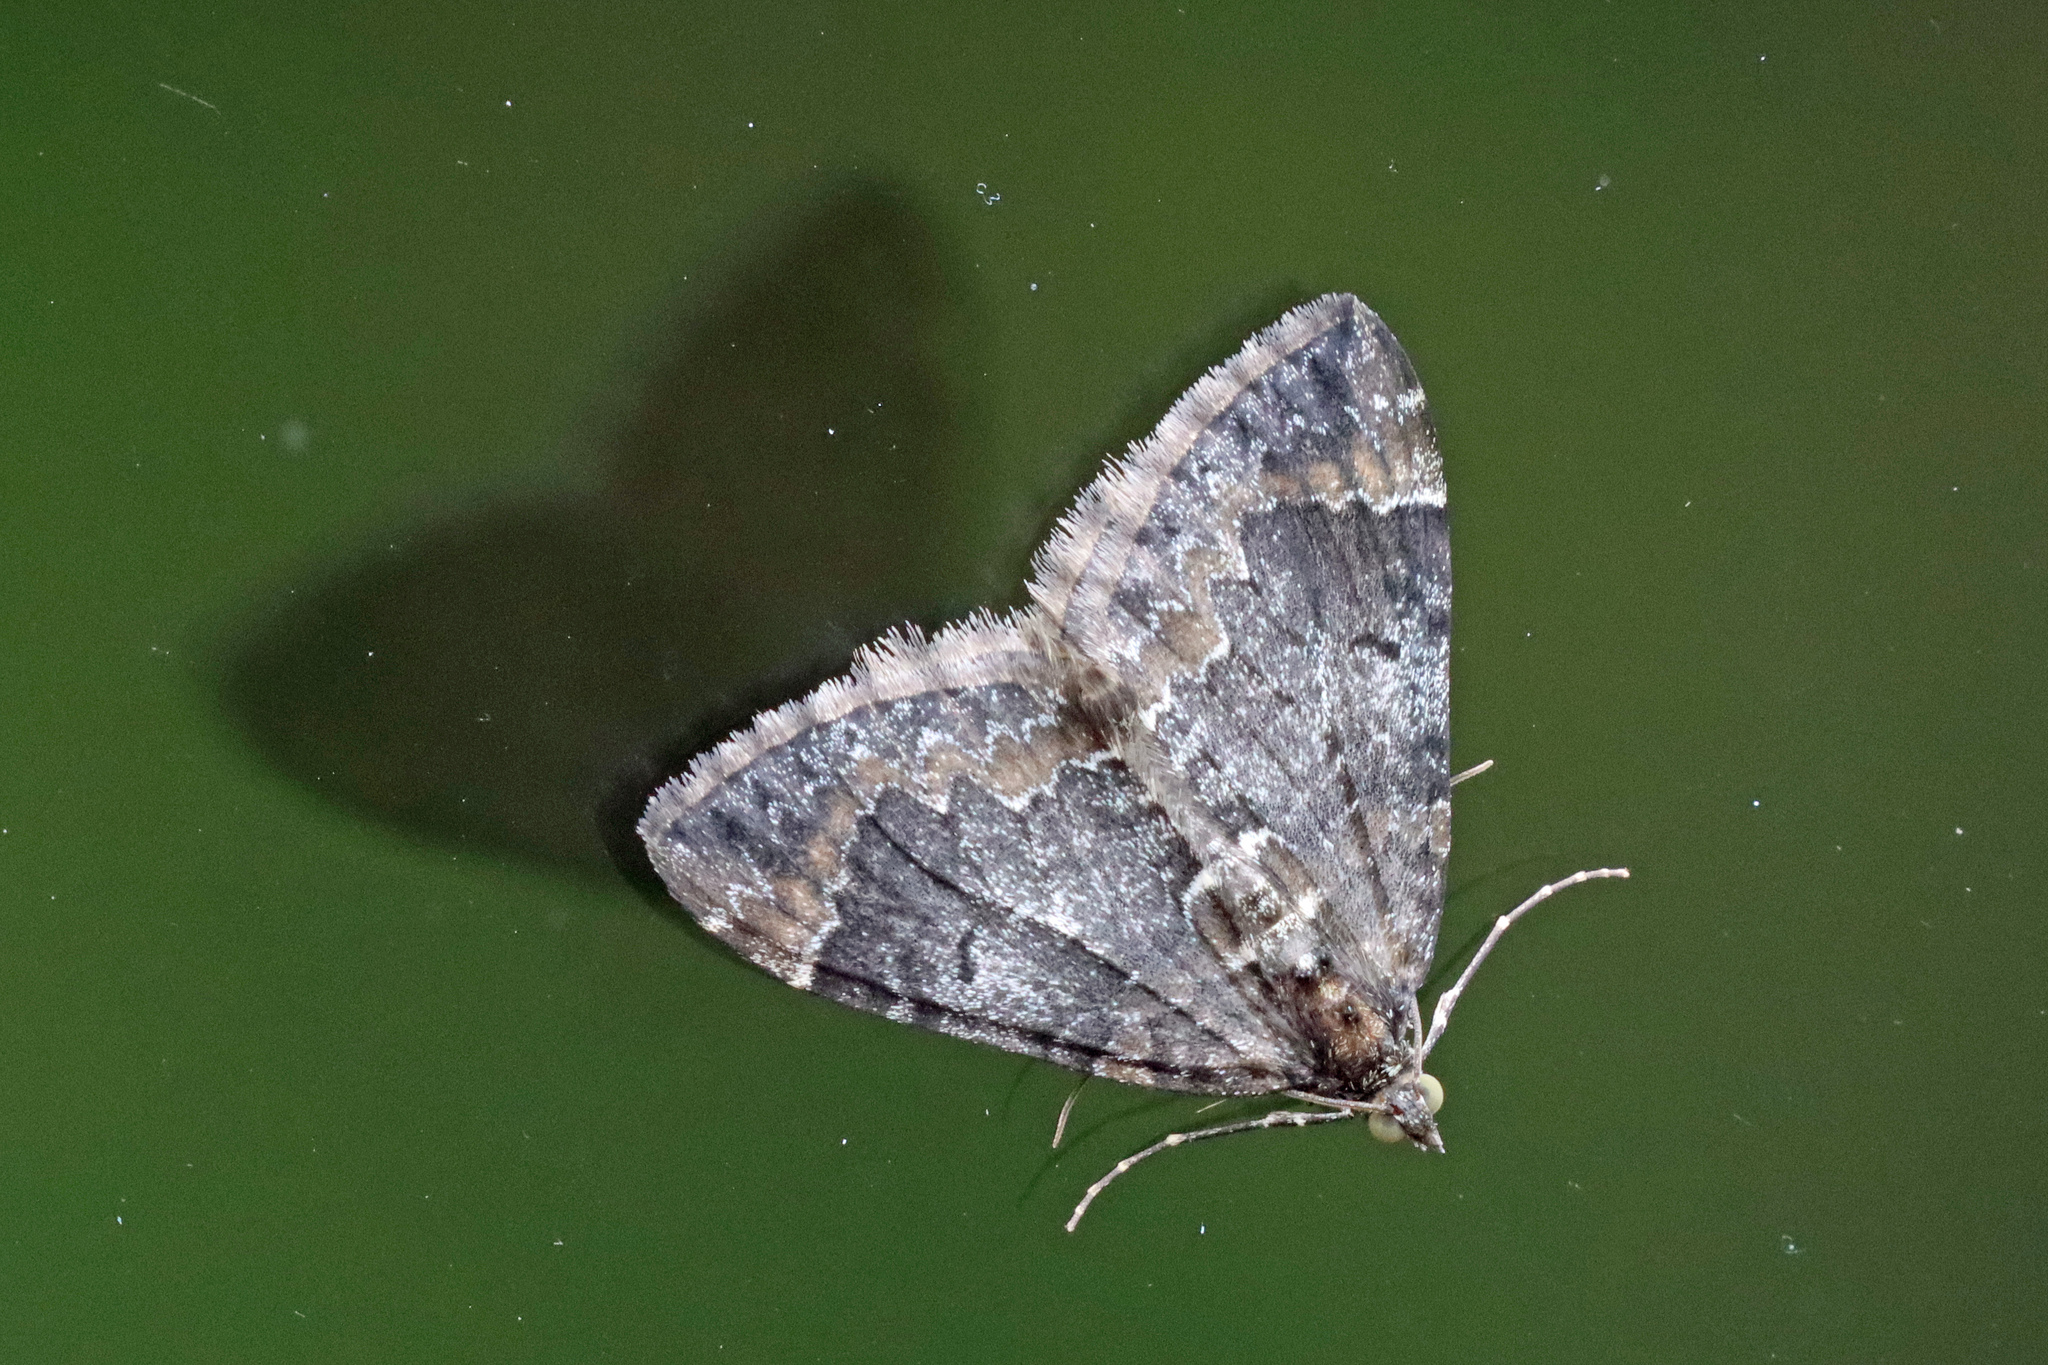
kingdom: Animalia
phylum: Arthropoda
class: Insecta
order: Lepidoptera
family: Geometridae
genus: Dysstroma
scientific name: Dysstroma truncata
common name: Common marbled carpet
